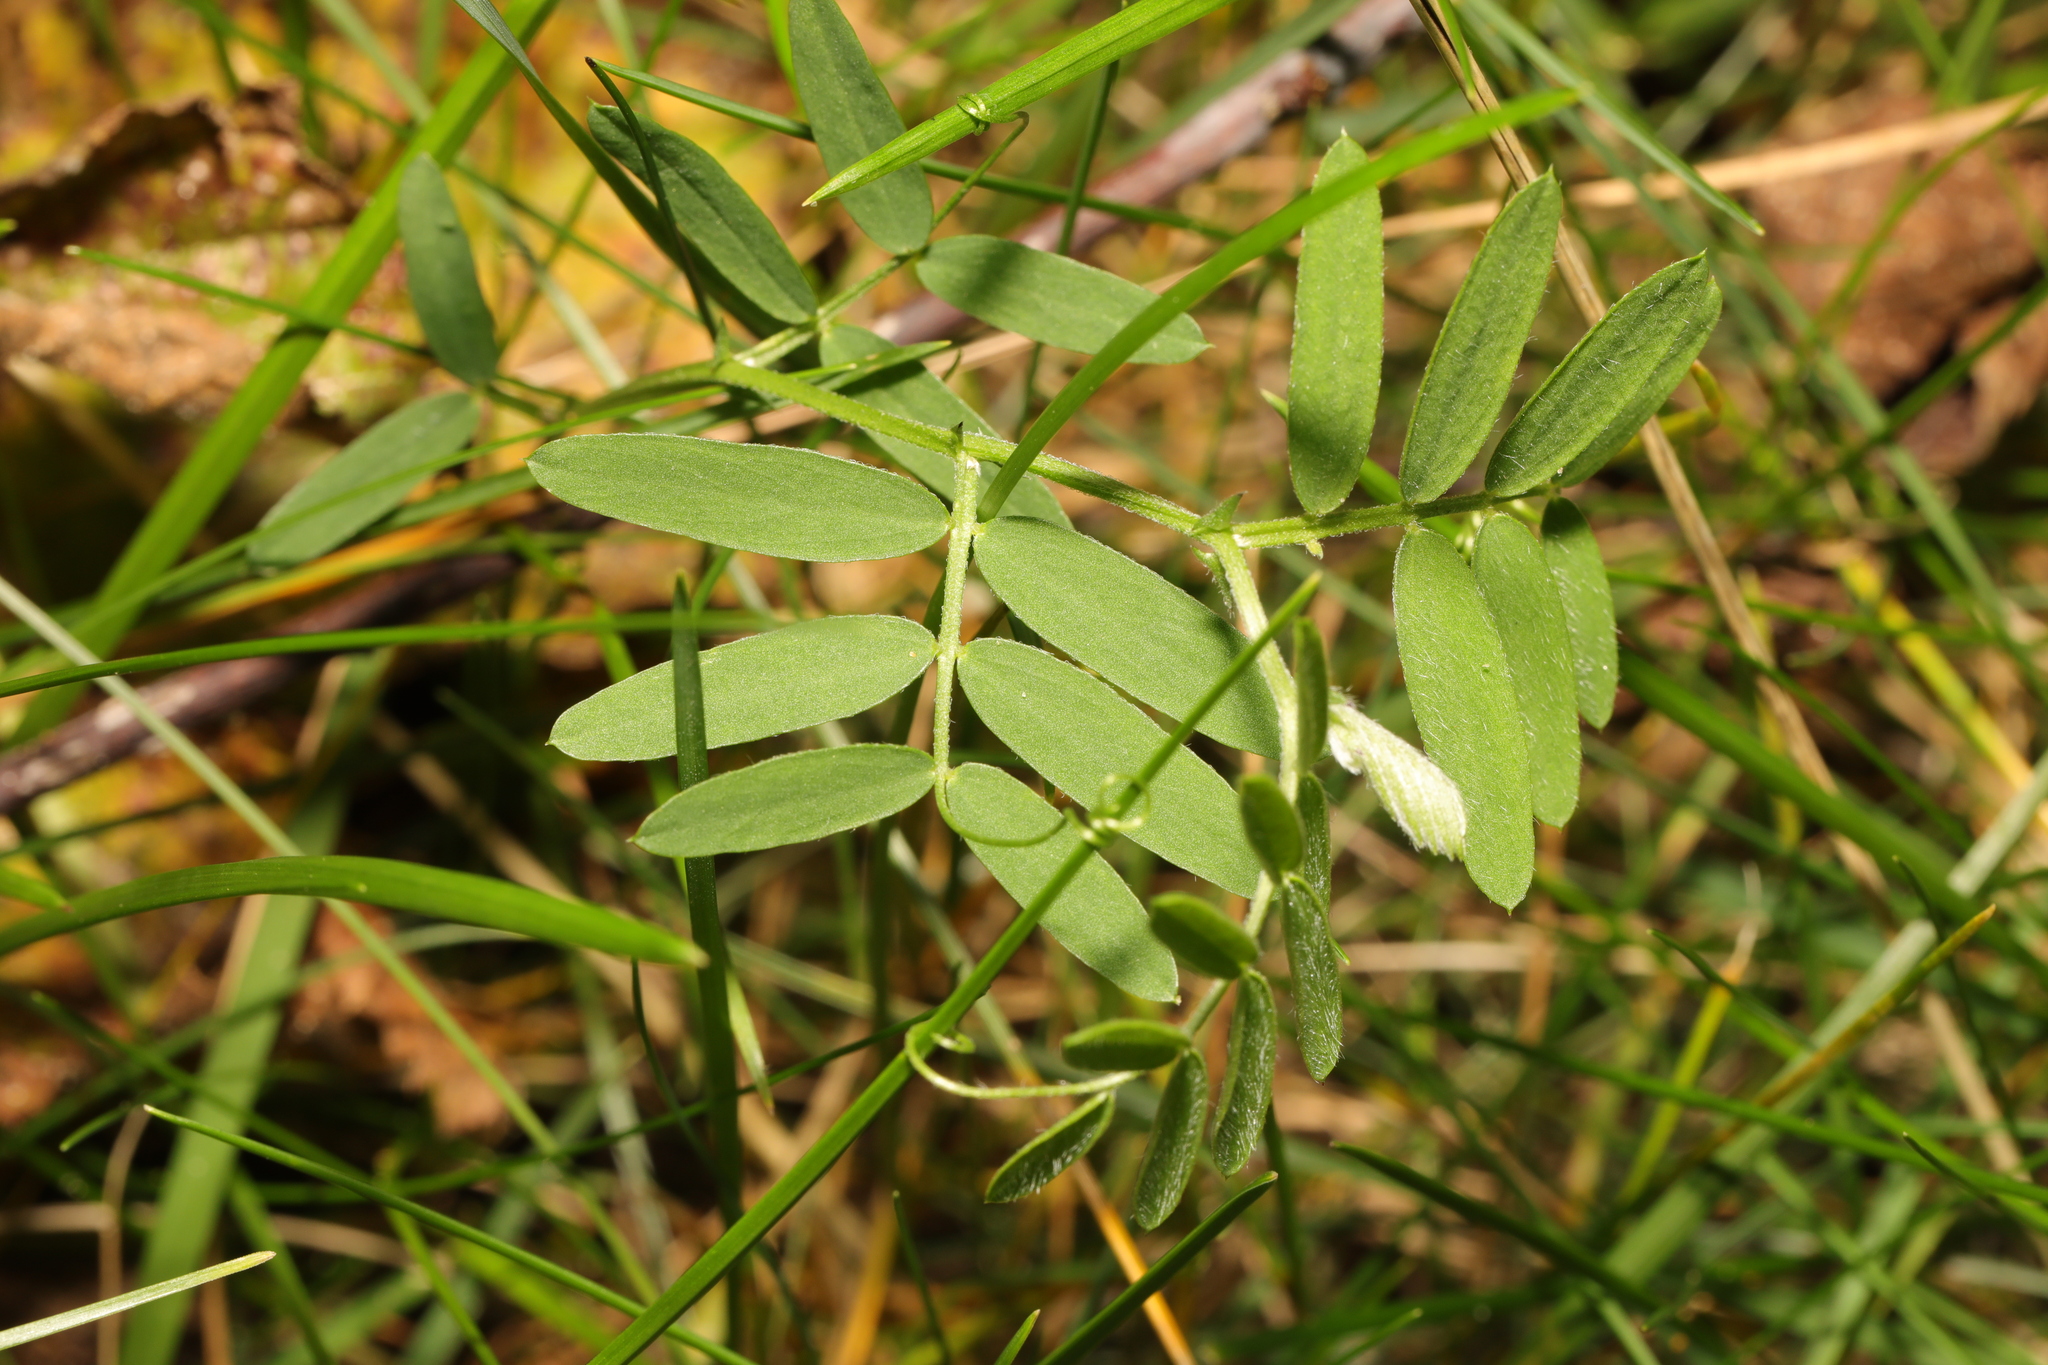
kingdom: Plantae
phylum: Tracheophyta
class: Magnoliopsida
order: Fabales
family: Fabaceae
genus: Vicia
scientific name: Vicia cracca
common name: Bird vetch
